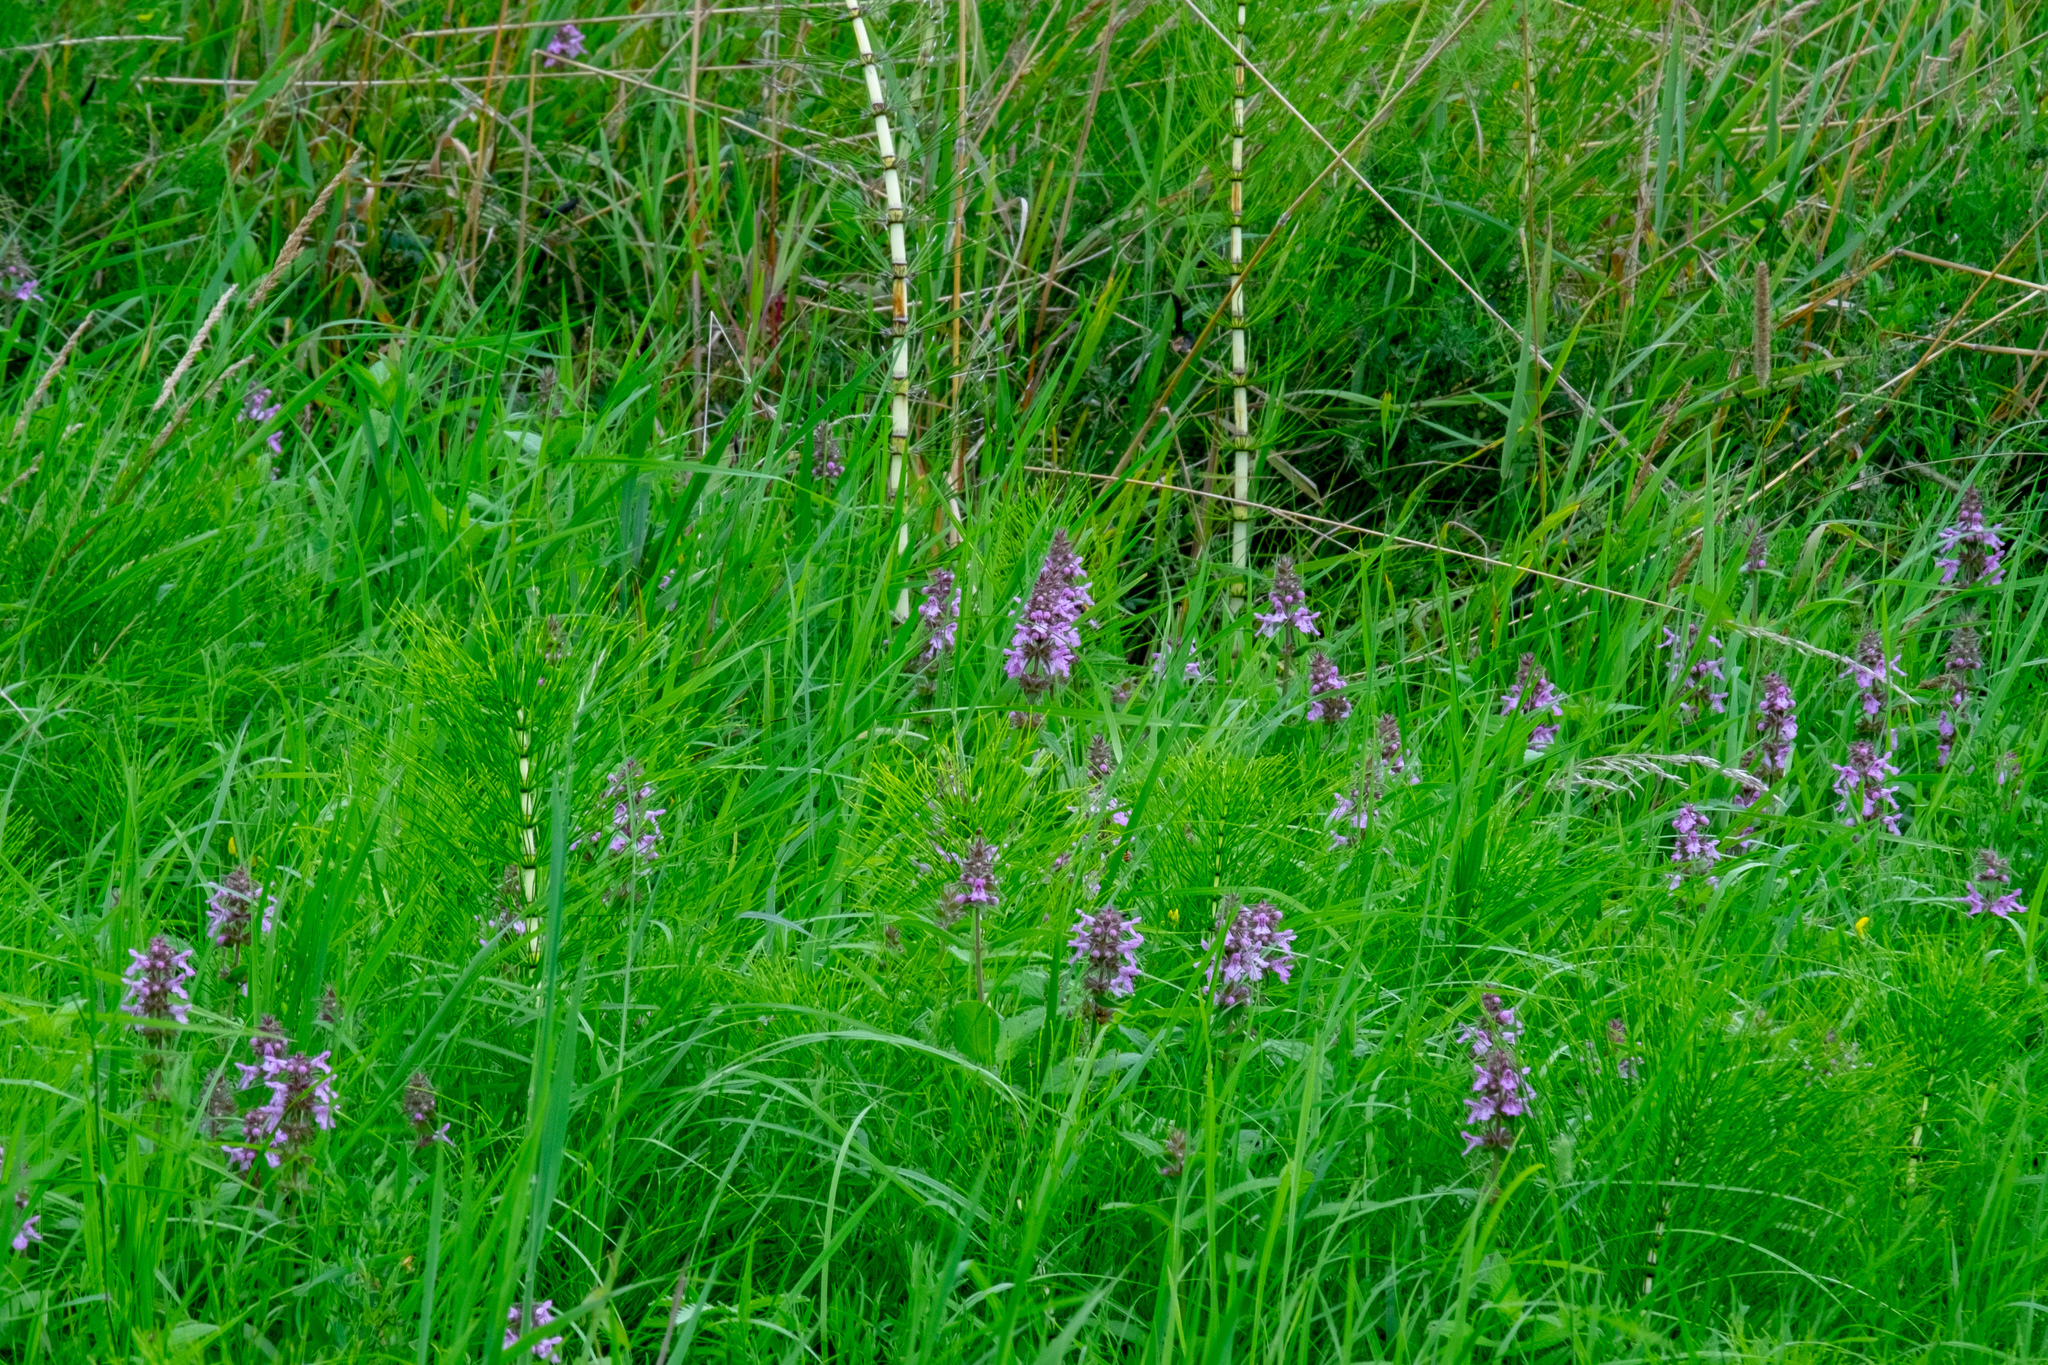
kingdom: Plantae
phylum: Tracheophyta
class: Magnoliopsida
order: Lamiales
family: Lamiaceae
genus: Stachys
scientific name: Stachys palustris
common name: Marsh woundwort
